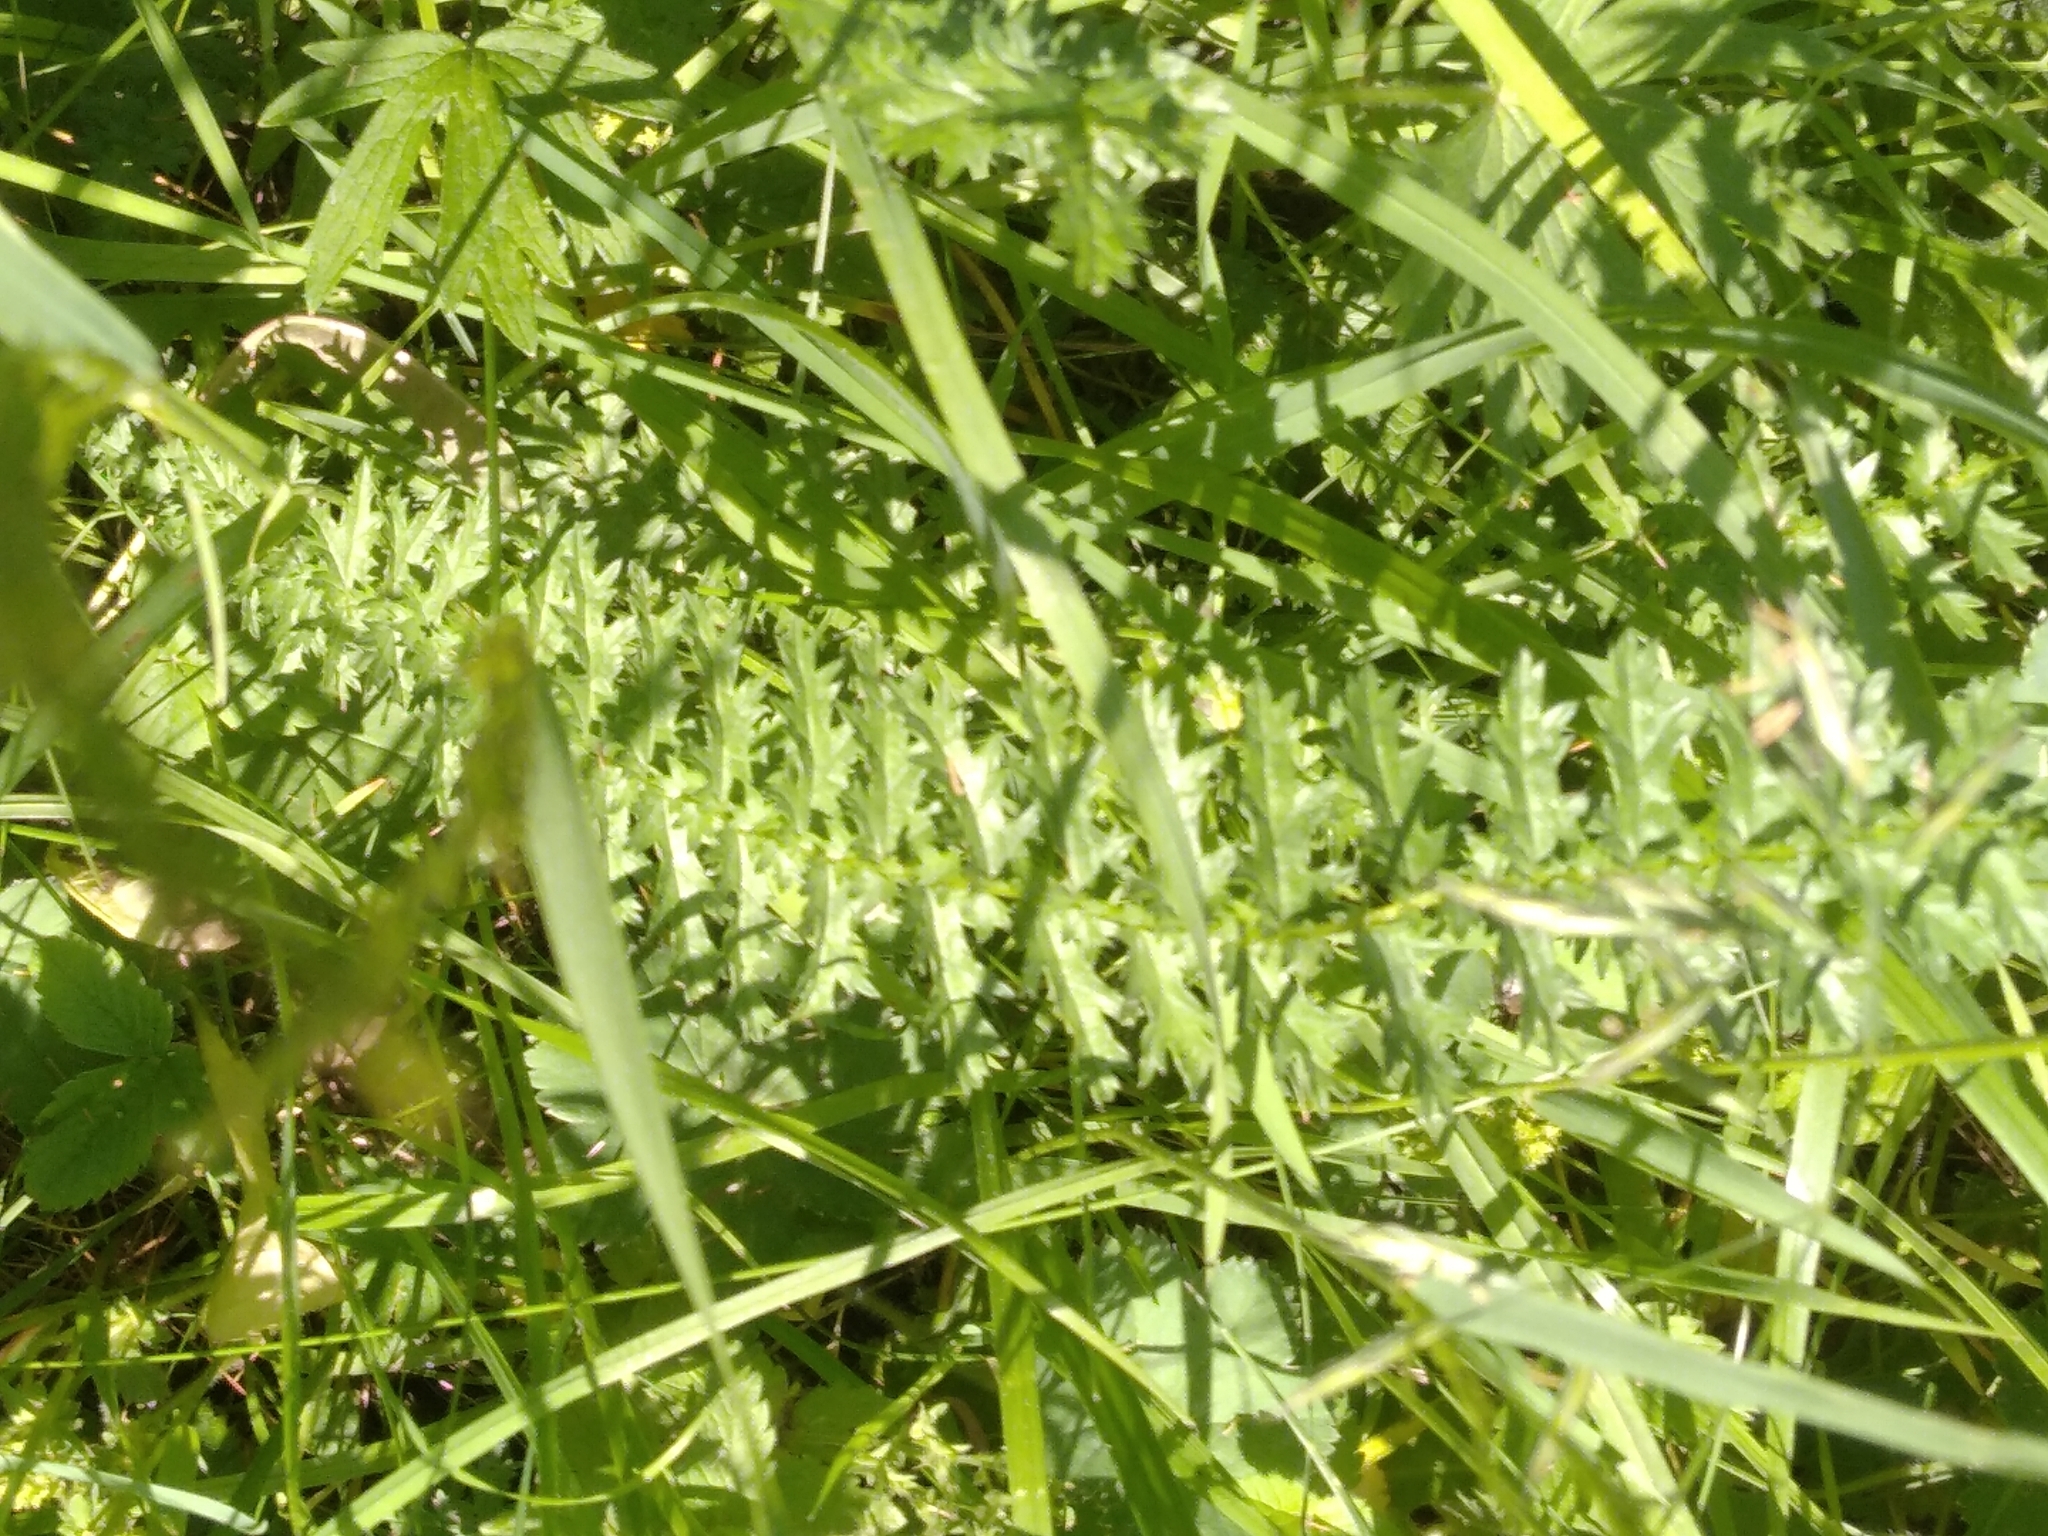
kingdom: Plantae
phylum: Tracheophyta
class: Magnoliopsida
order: Rosales
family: Rosaceae
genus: Filipendula
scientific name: Filipendula vulgaris
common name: Dropwort
